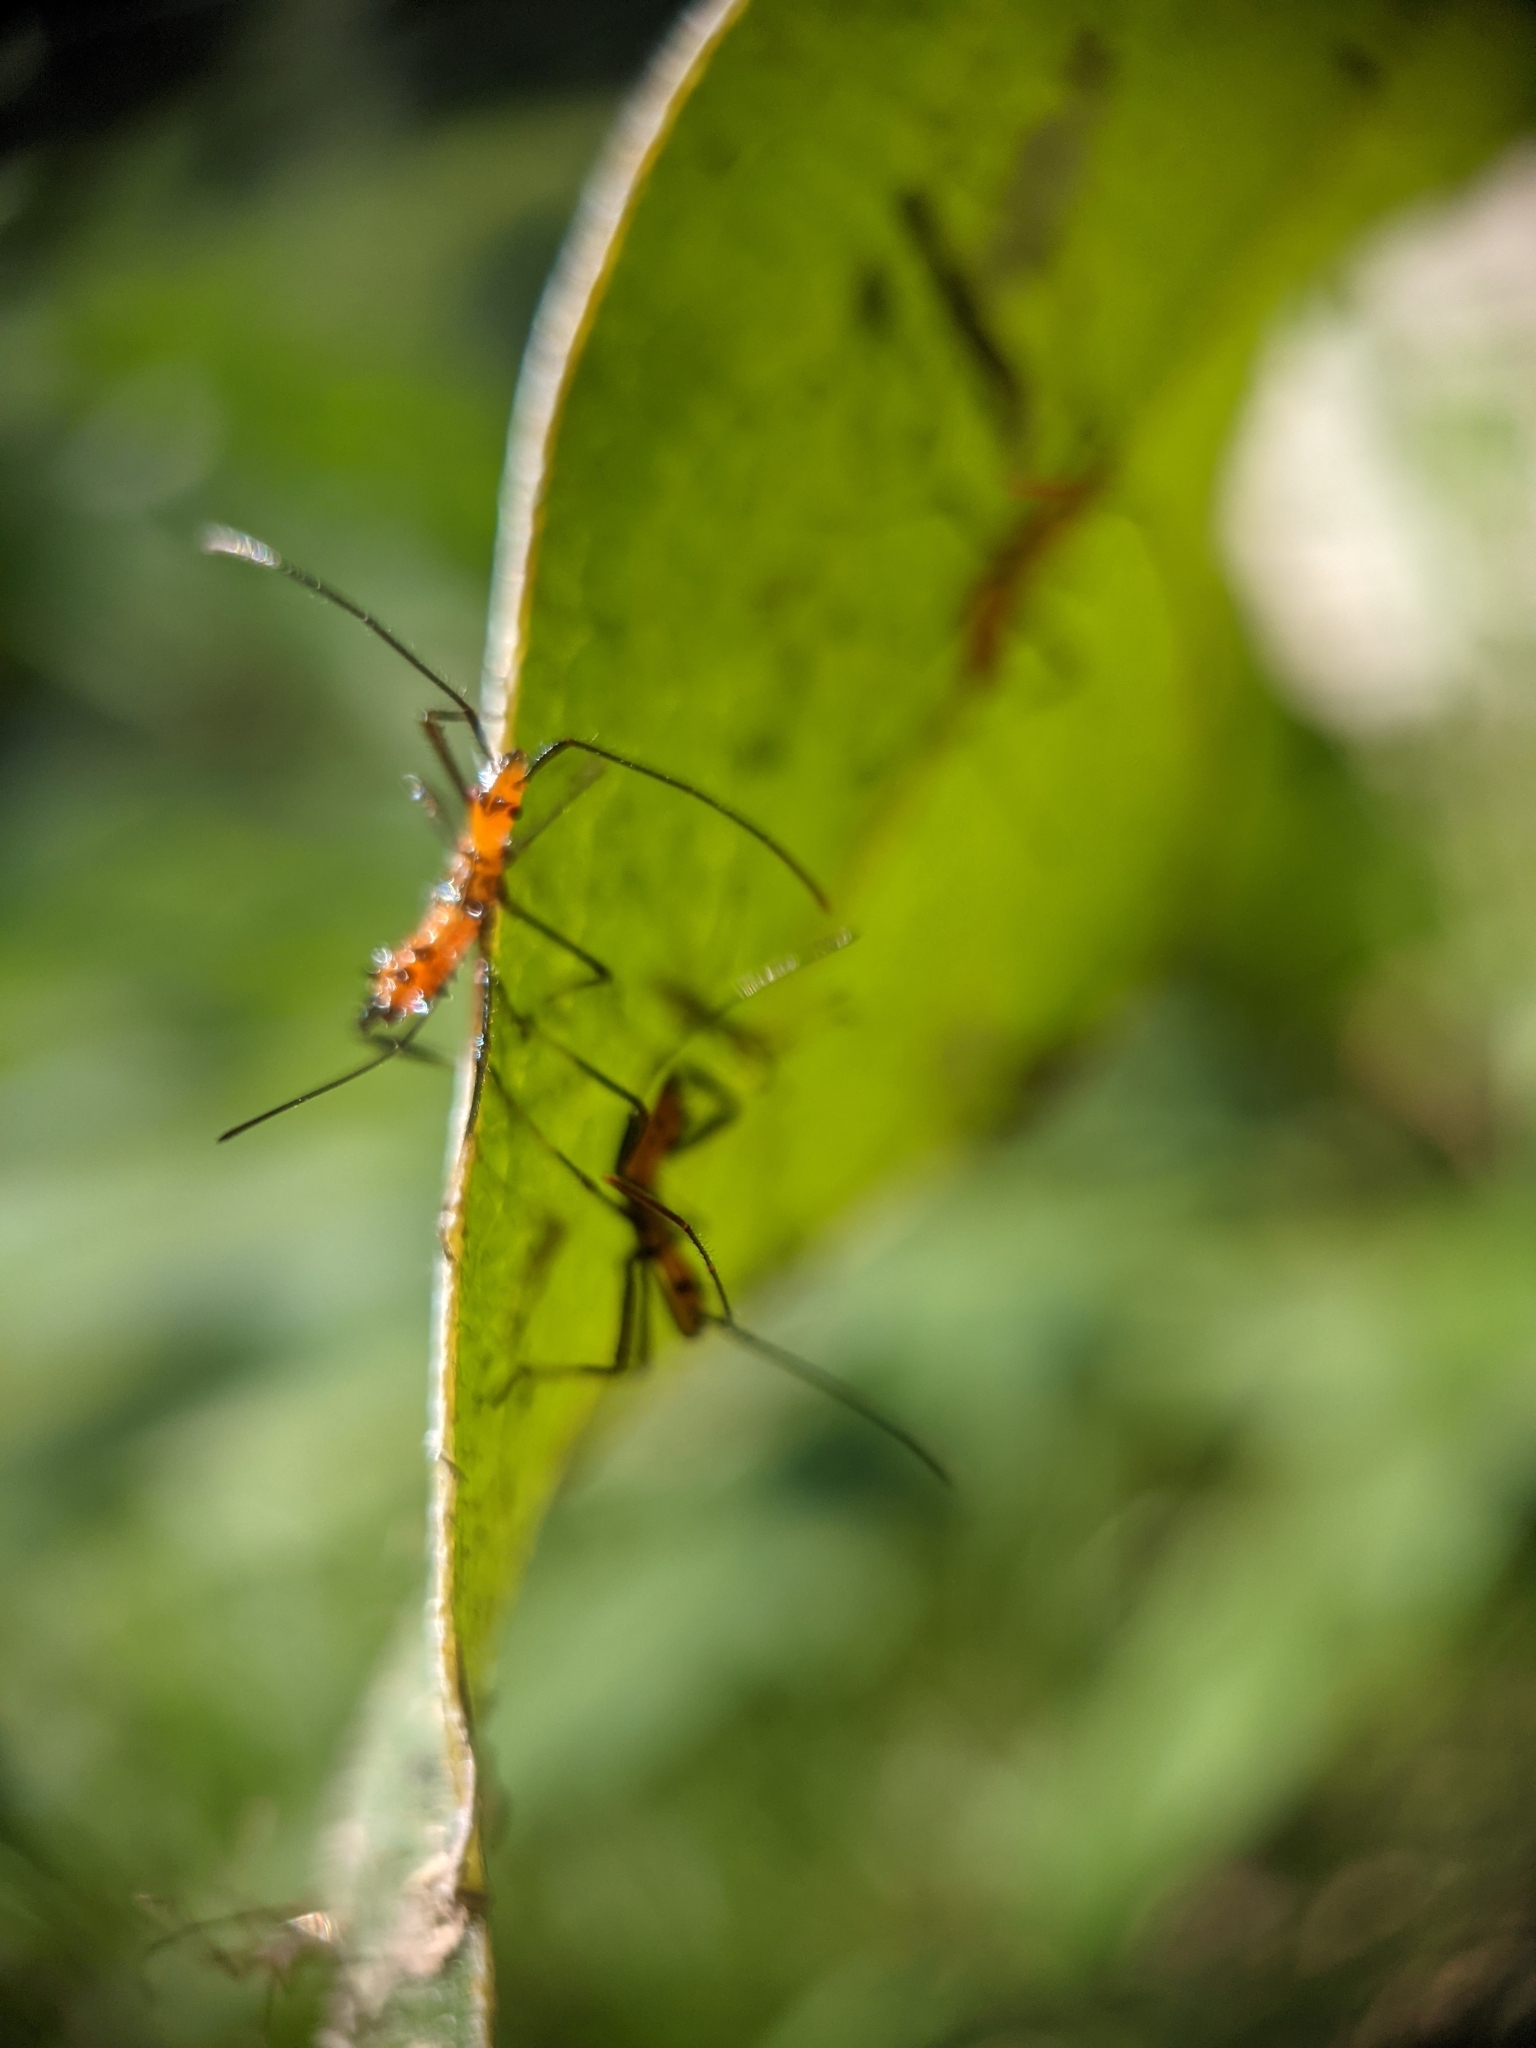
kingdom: Animalia
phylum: Arthropoda
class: Insecta
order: Hemiptera
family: Coreidae
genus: Leptoglossus
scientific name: Leptoglossus fulvicornis
